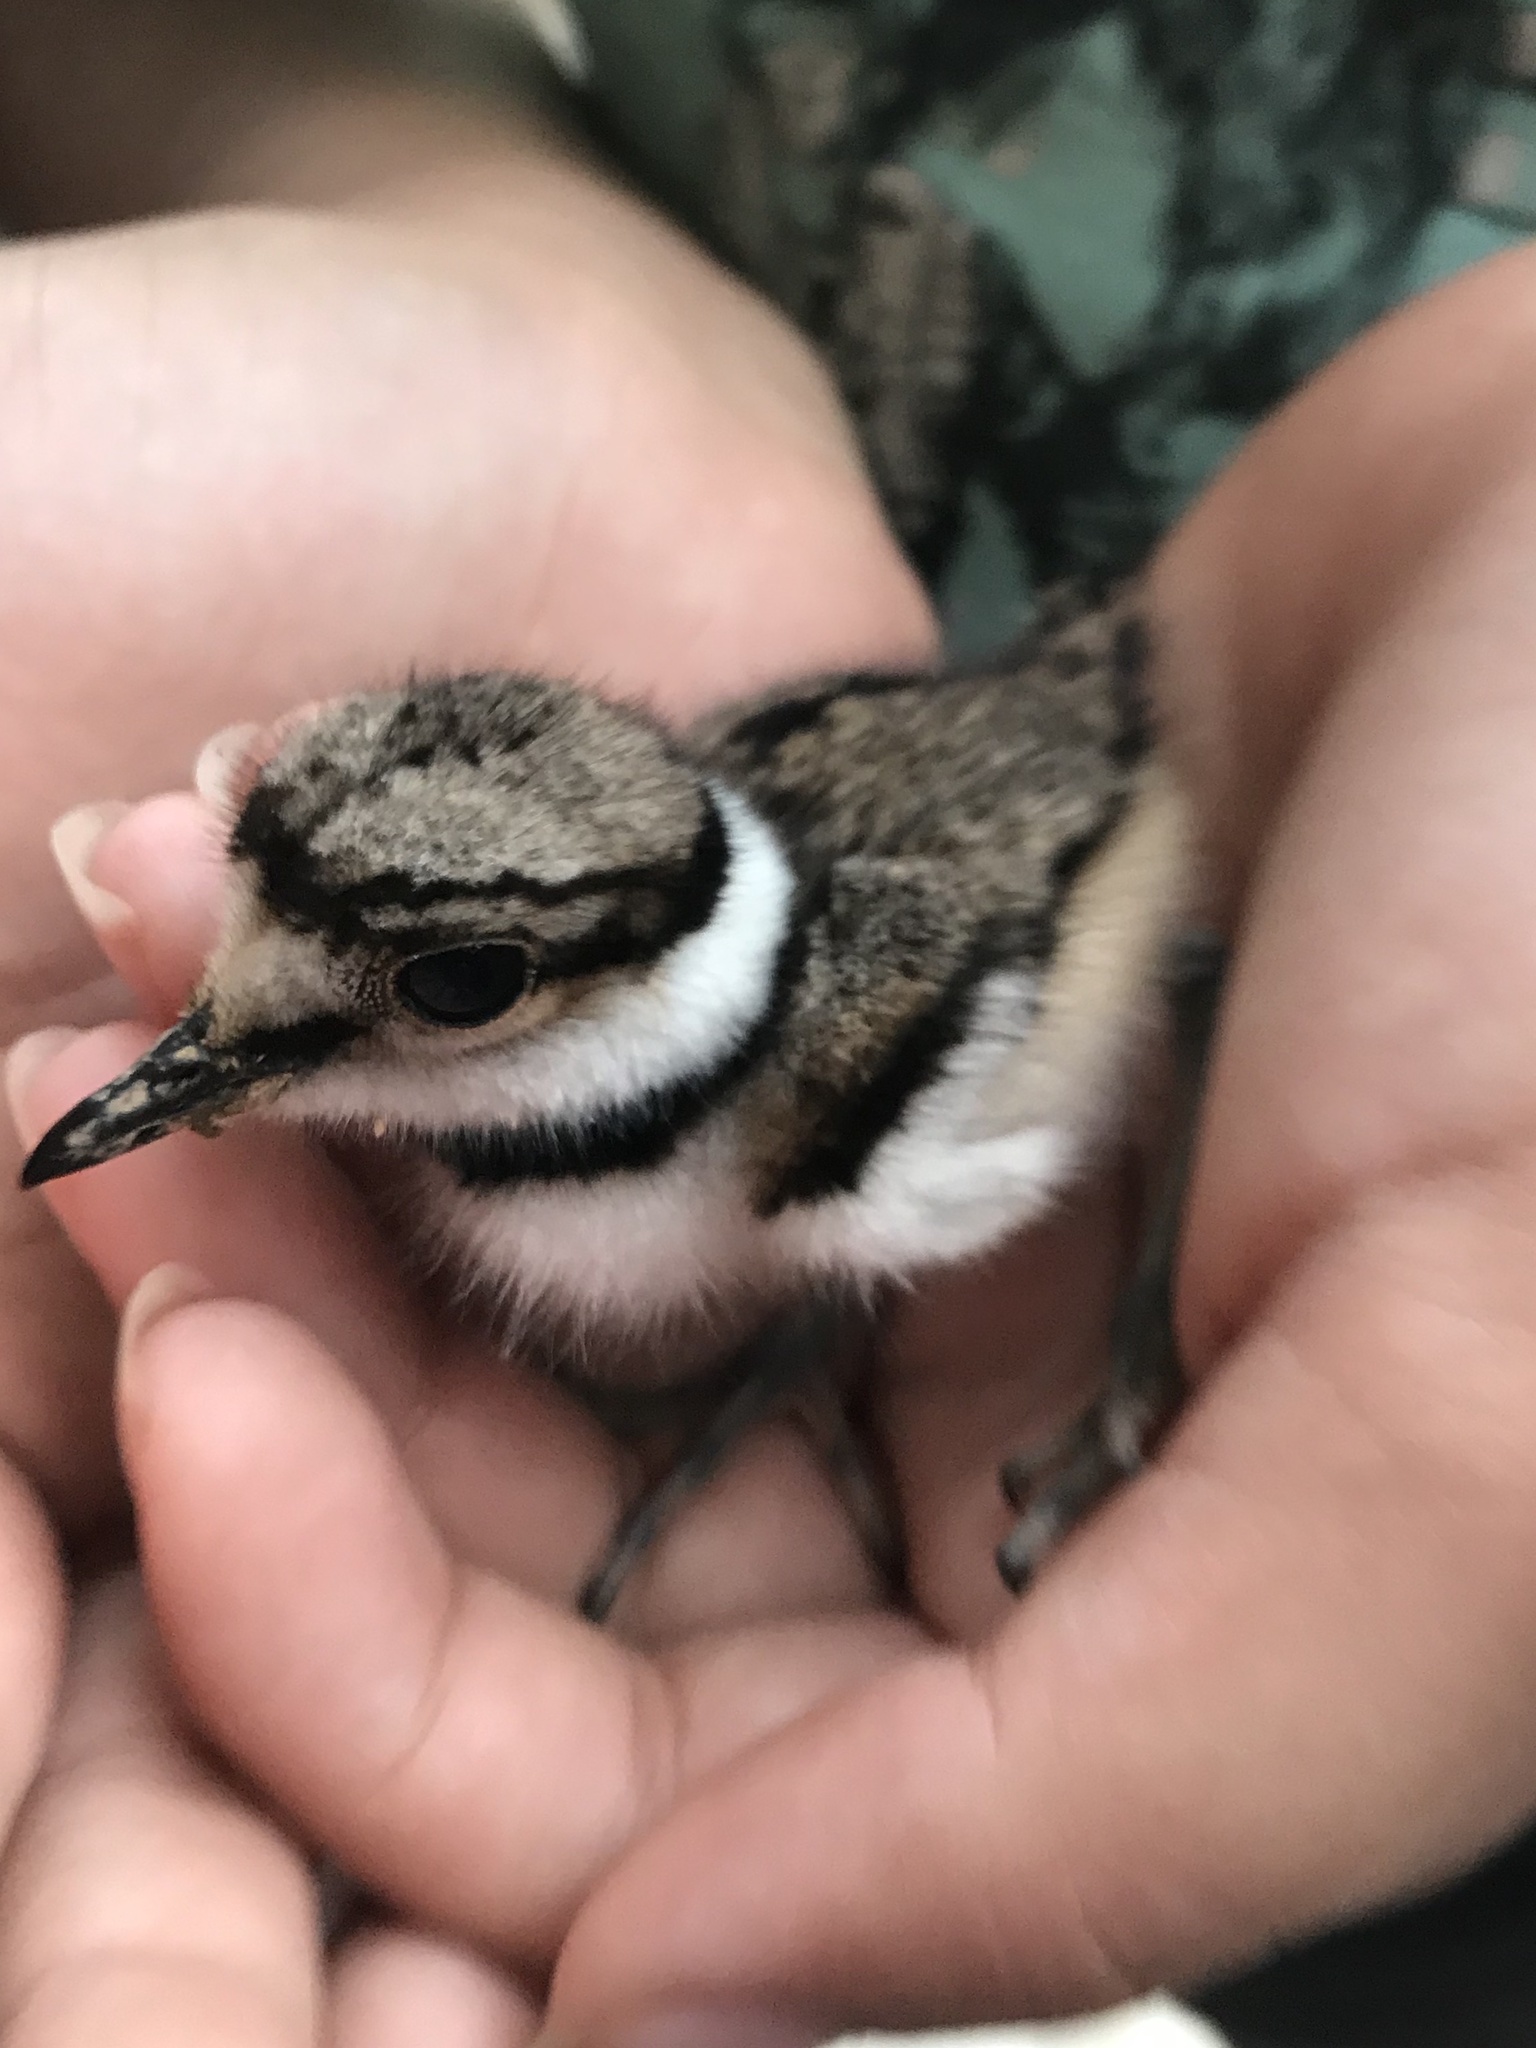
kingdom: Animalia
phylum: Chordata
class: Aves
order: Charadriiformes
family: Charadriidae
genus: Charadrius
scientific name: Charadrius vociferus
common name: Killdeer
